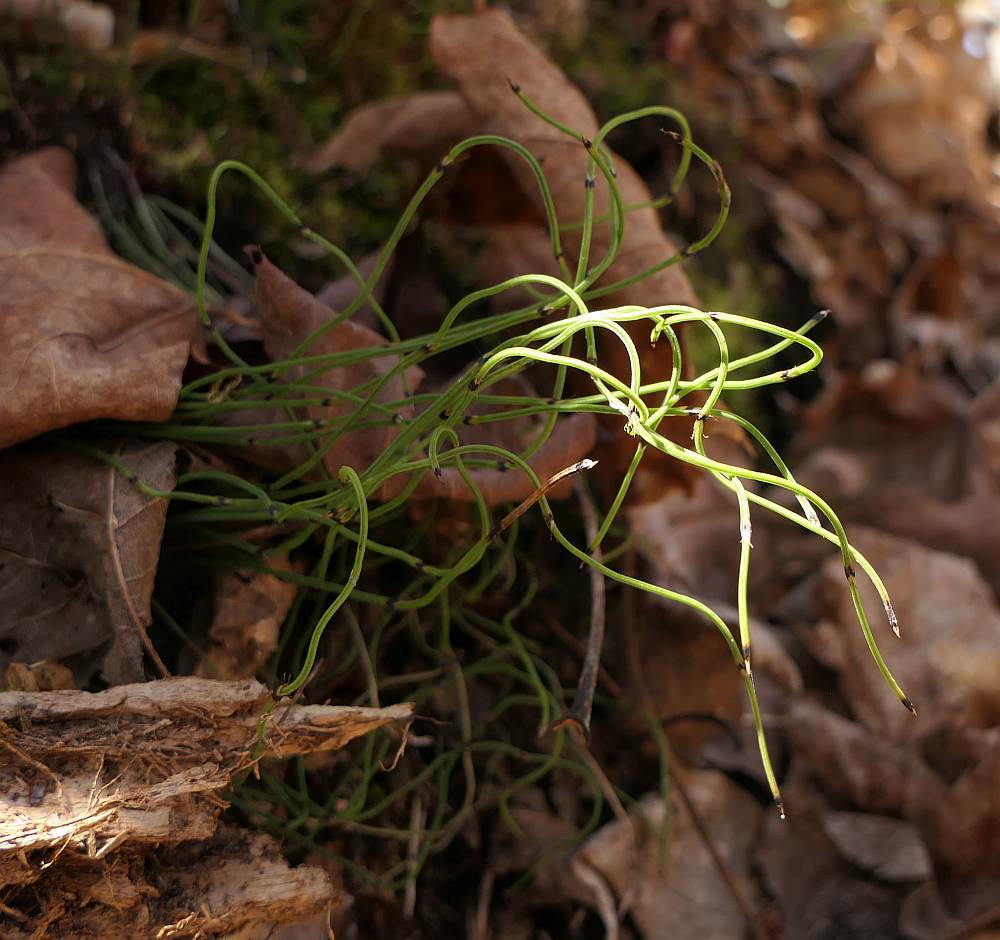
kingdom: Plantae
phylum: Tracheophyta
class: Polypodiopsida
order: Equisetales
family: Equisetaceae
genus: Equisetum
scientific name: Equisetum scirpoides
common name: Delicate horsetail
